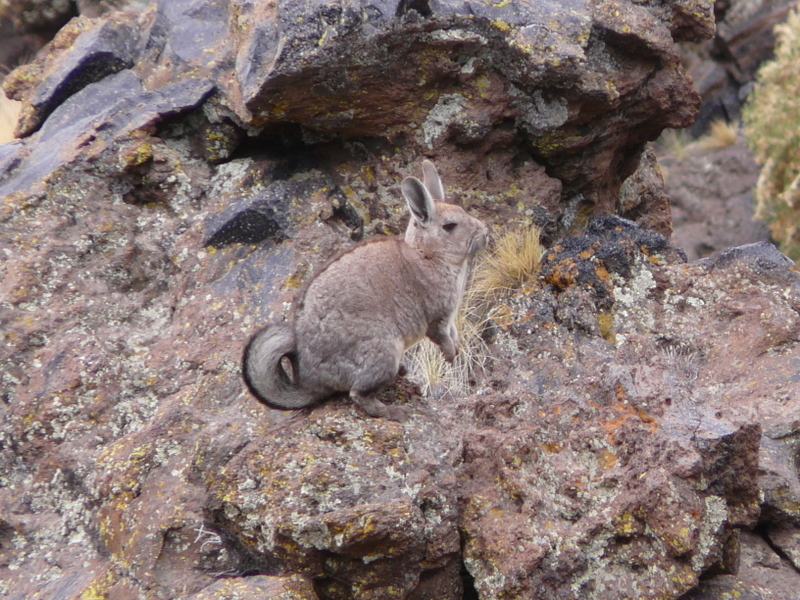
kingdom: Animalia
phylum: Chordata
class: Mammalia
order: Rodentia
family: Chinchillidae
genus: Lagidium
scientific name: Lagidium viscacia
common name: Southern viscacha
